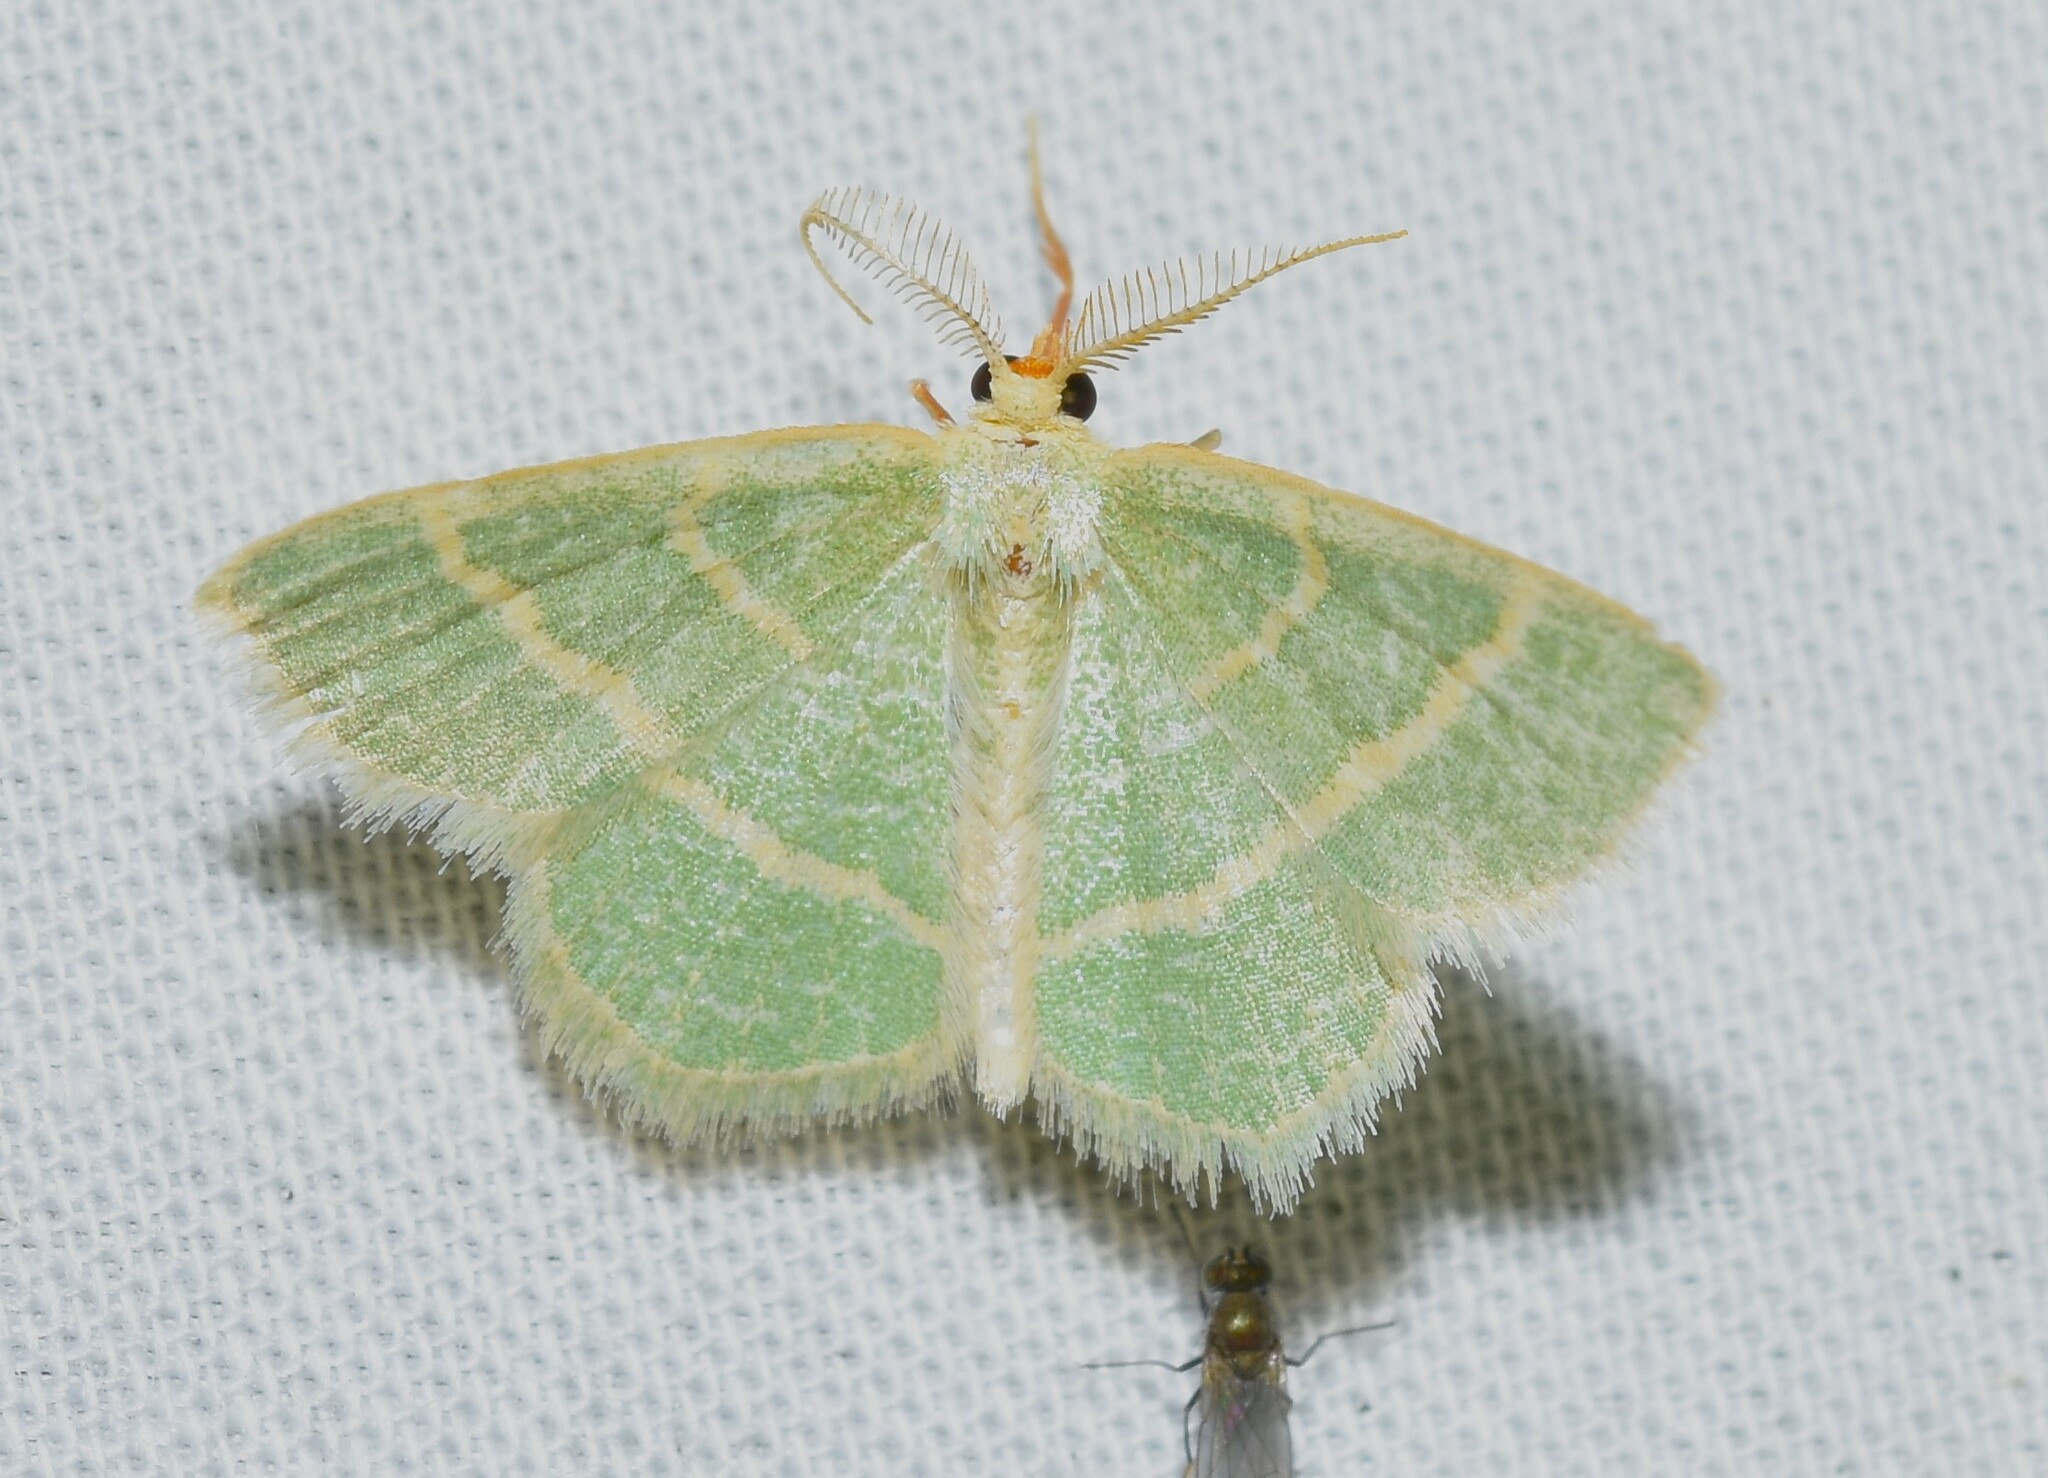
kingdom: Animalia
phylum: Arthropoda
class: Insecta
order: Lepidoptera
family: Geometridae
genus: Chlorochlamys
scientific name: Chlorochlamys chloroleucaria
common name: Blackberry looper
